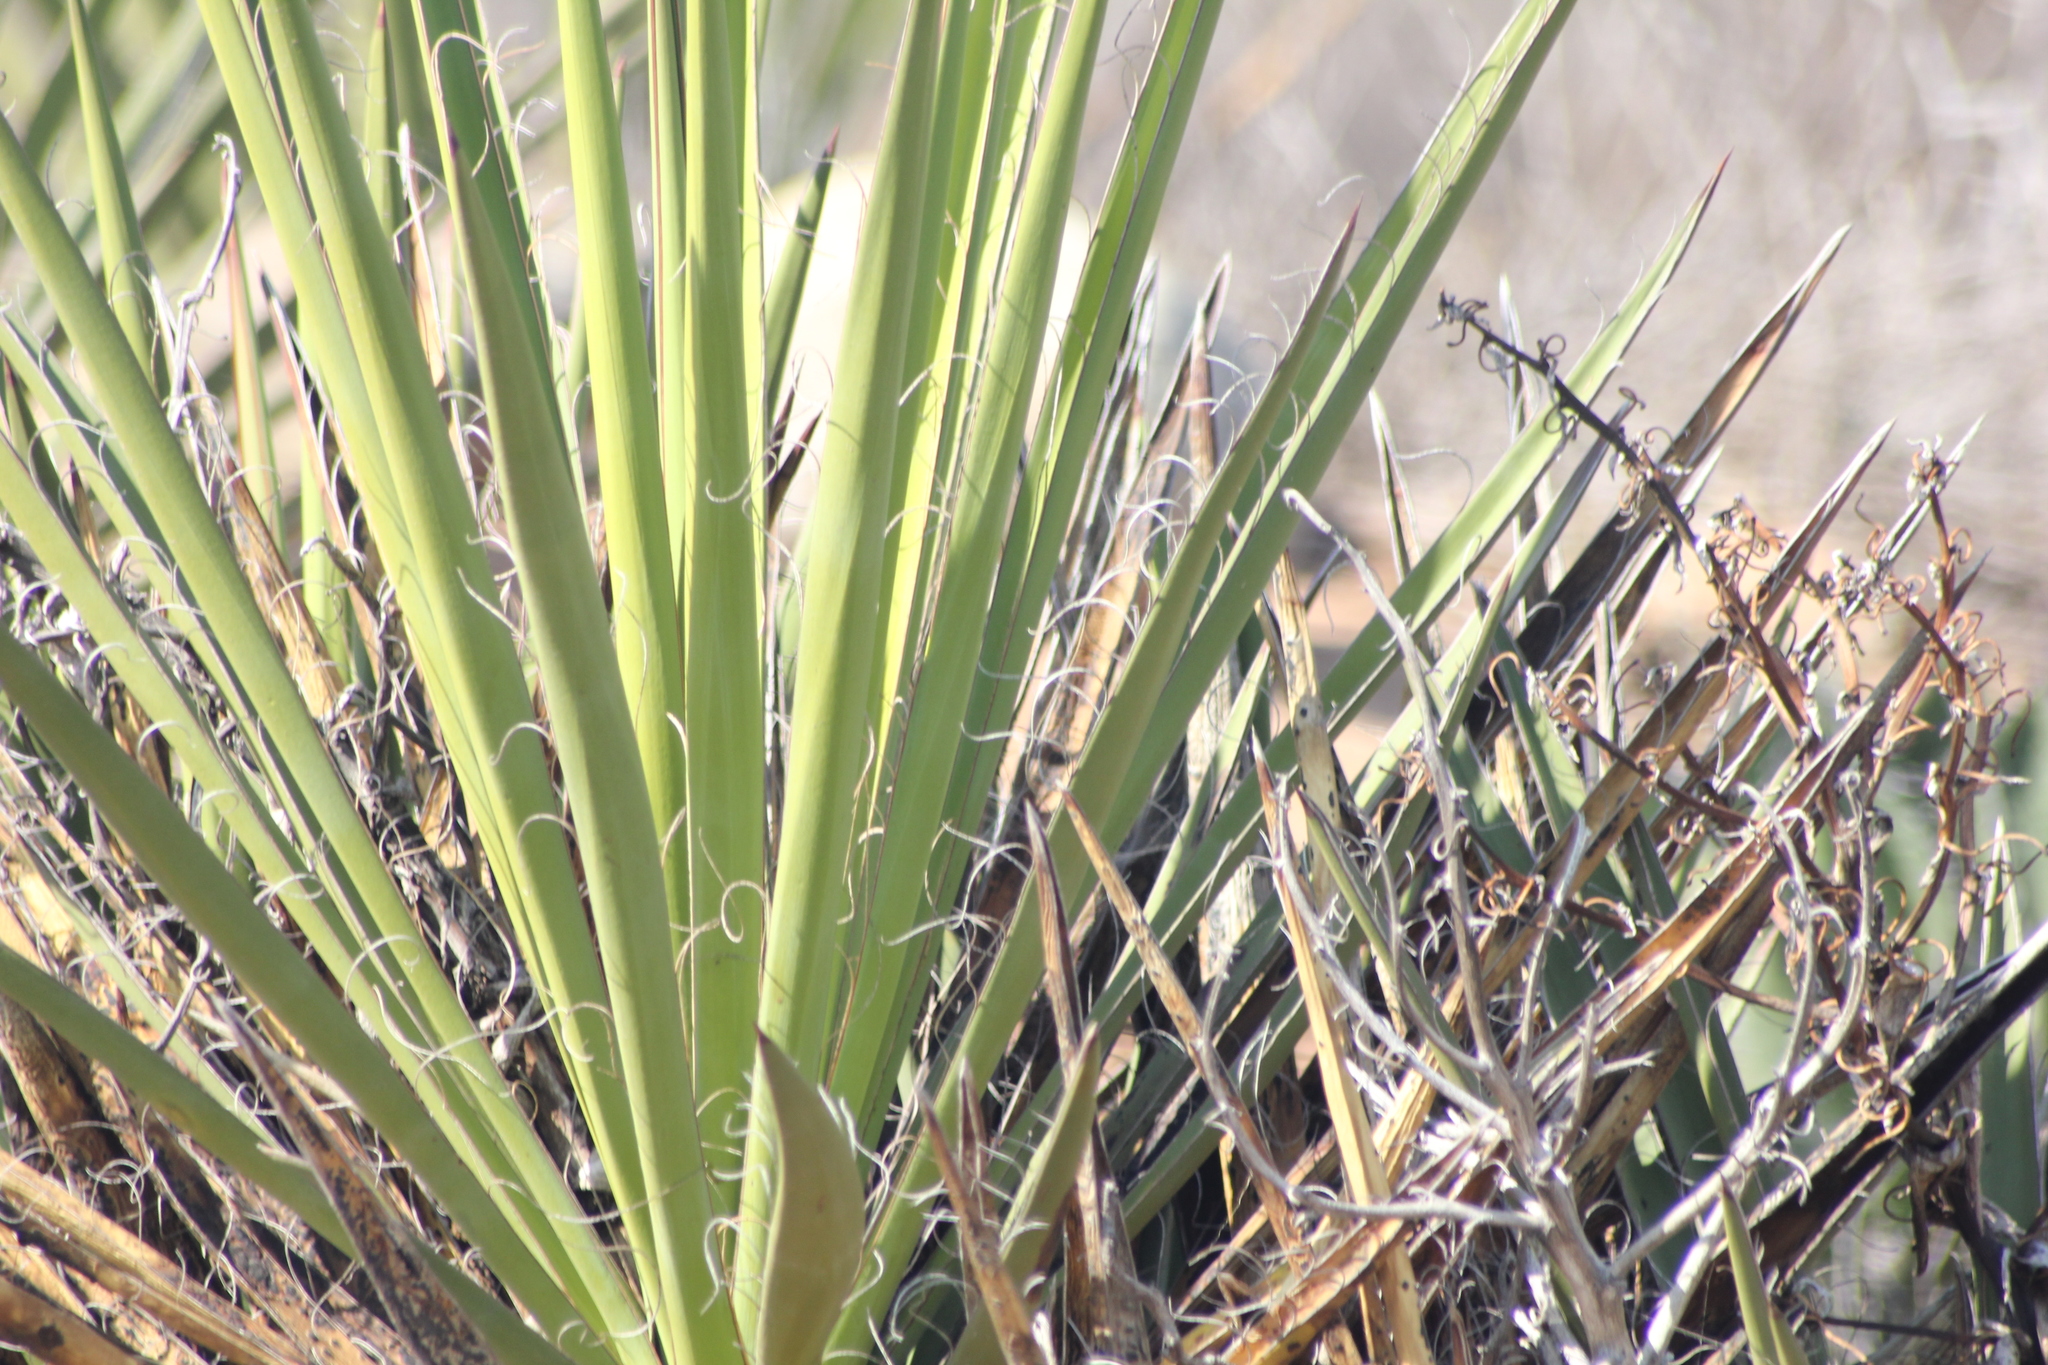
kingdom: Plantae
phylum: Tracheophyta
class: Liliopsida
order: Asparagales
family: Asparagaceae
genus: Yucca
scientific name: Yucca schidigera
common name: Mojave yucca
